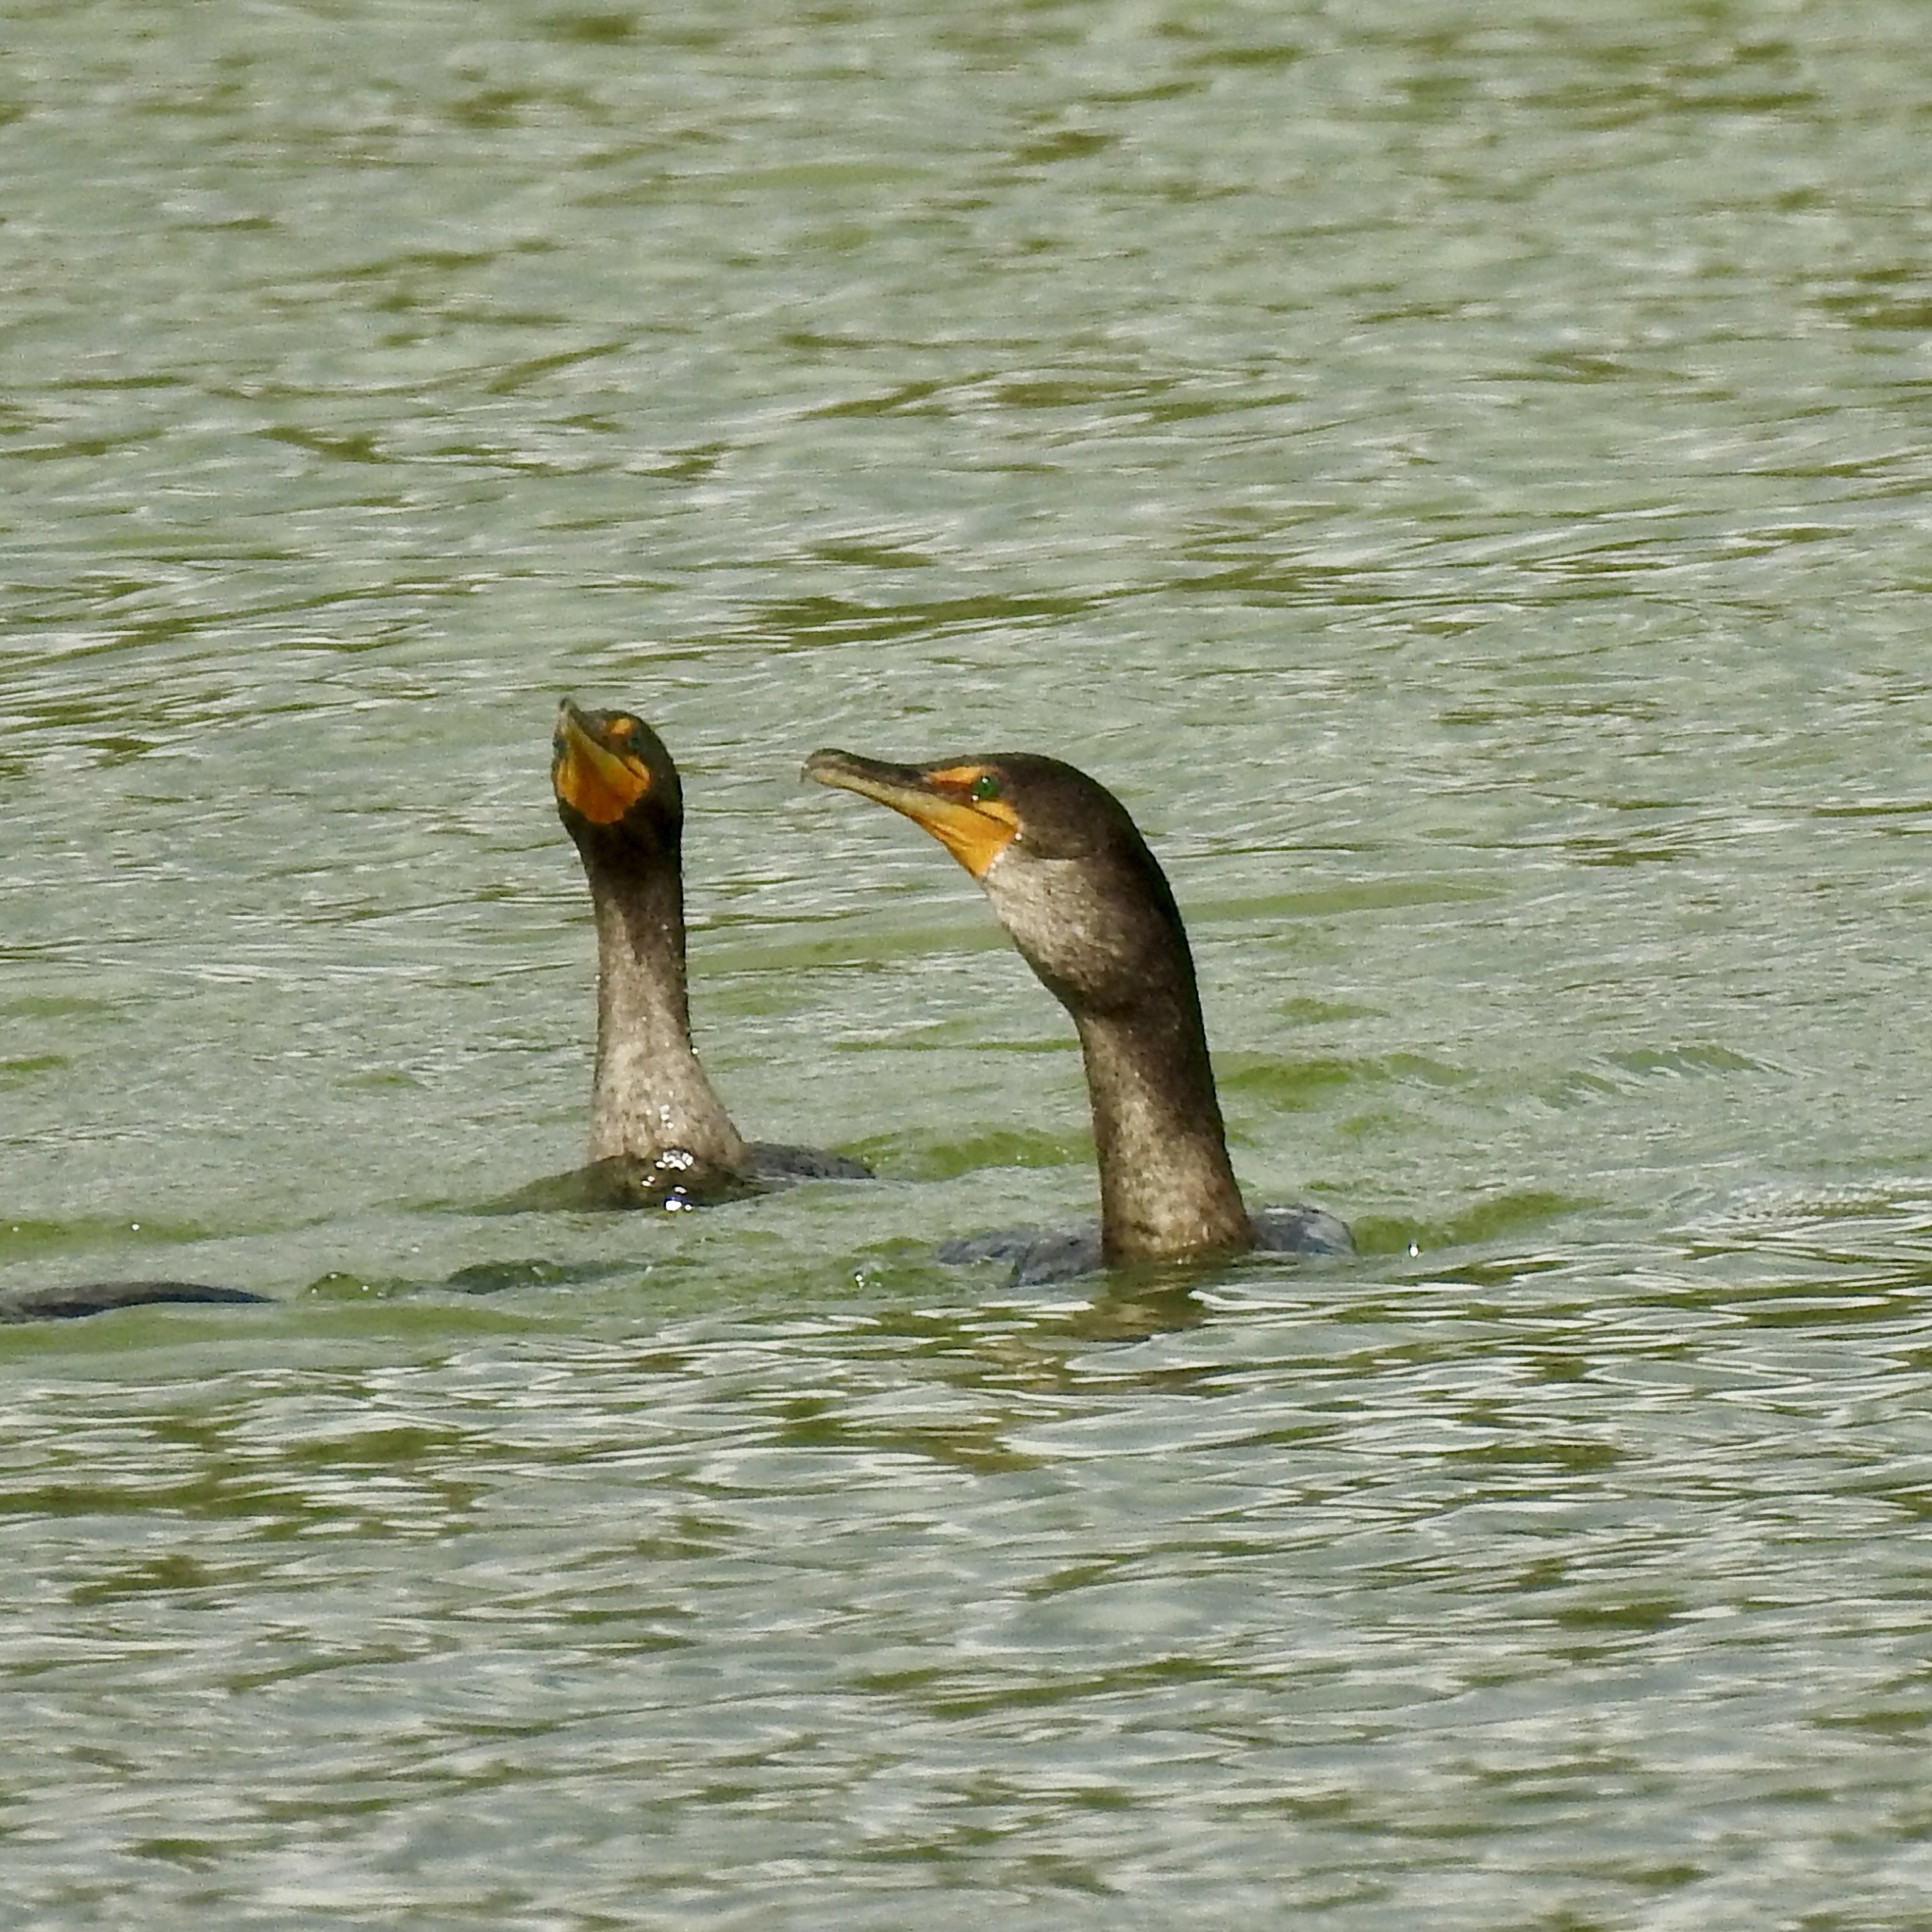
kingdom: Animalia
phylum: Chordata
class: Aves
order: Suliformes
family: Phalacrocoracidae
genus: Phalacrocorax
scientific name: Phalacrocorax auritus
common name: Double-crested cormorant
